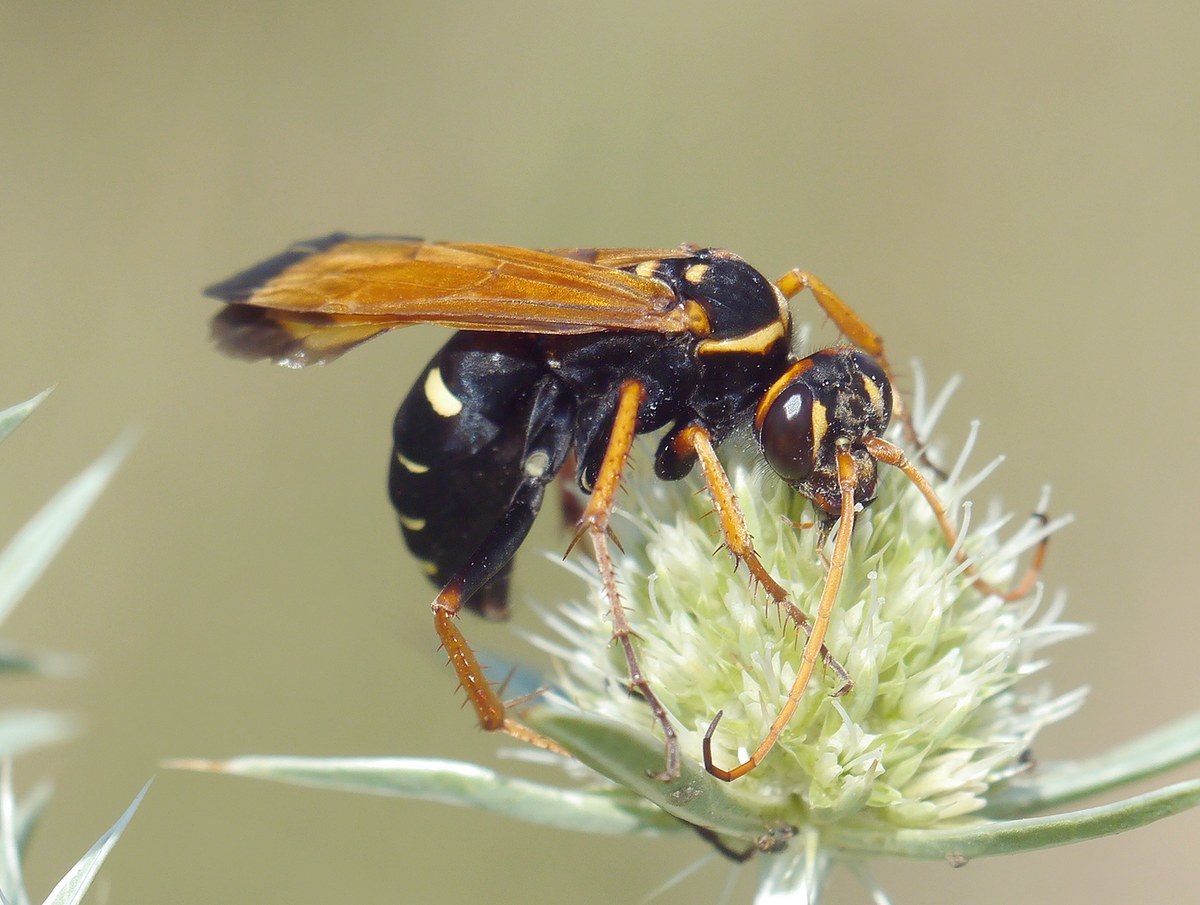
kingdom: Animalia
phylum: Arthropoda
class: Insecta
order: Hymenoptera
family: Pompilidae
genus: Parabatozonus
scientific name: Parabatozonus lacerticida
